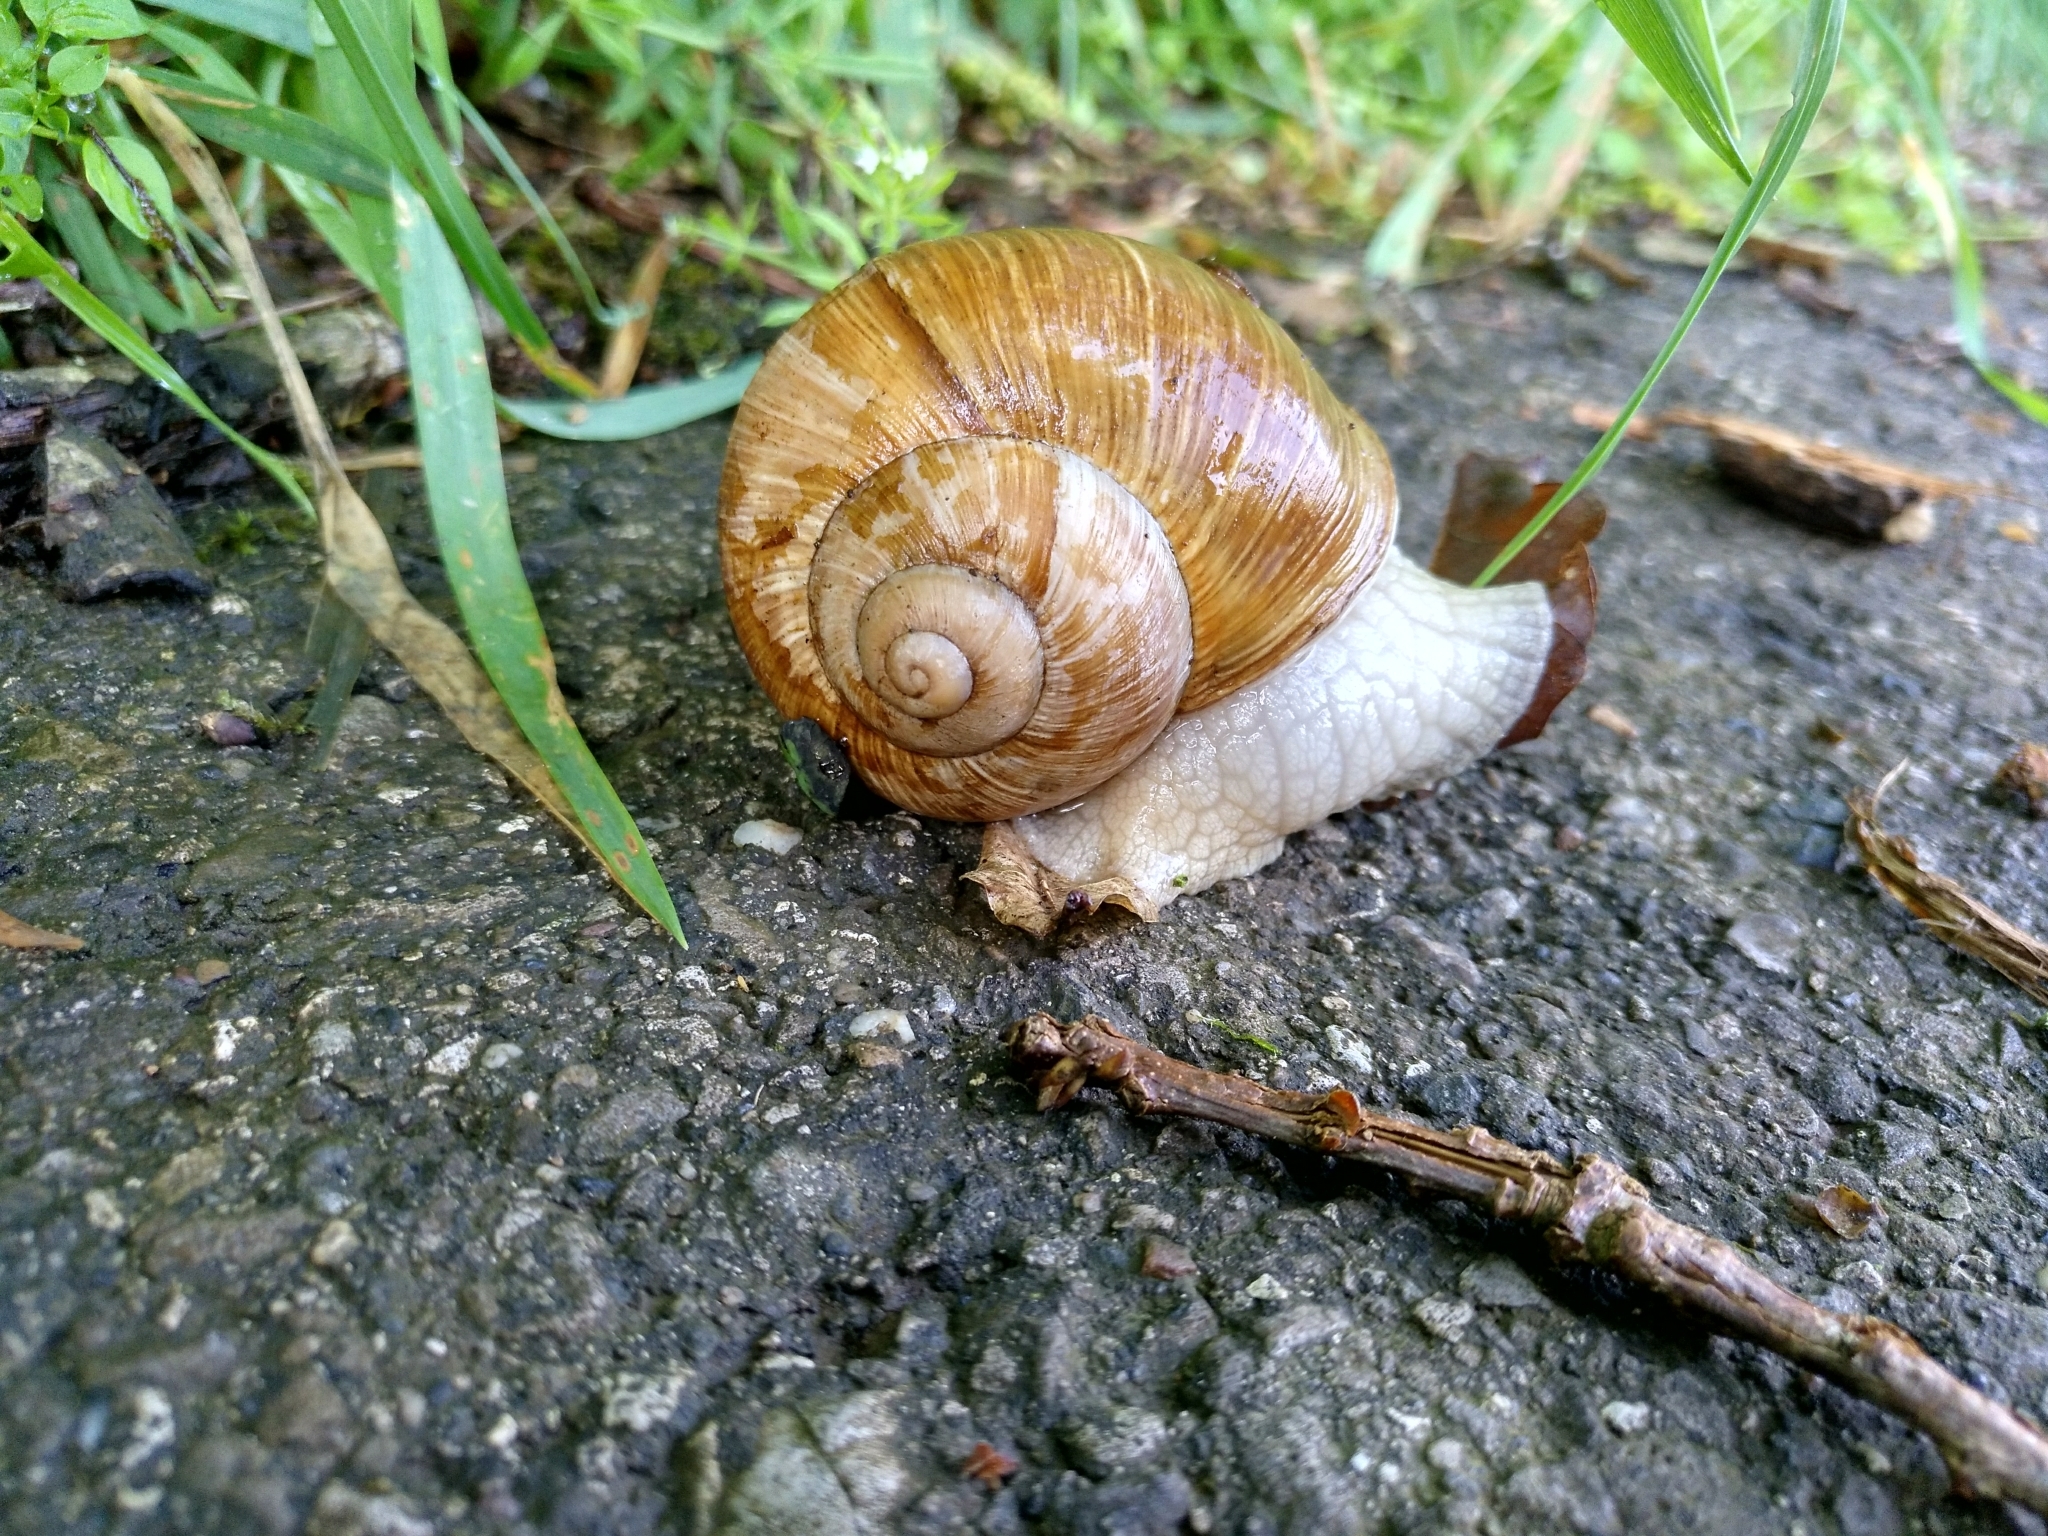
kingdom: Animalia
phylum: Mollusca
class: Gastropoda
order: Stylommatophora
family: Helicidae
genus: Helix
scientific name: Helix pomatia
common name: Roman snail
